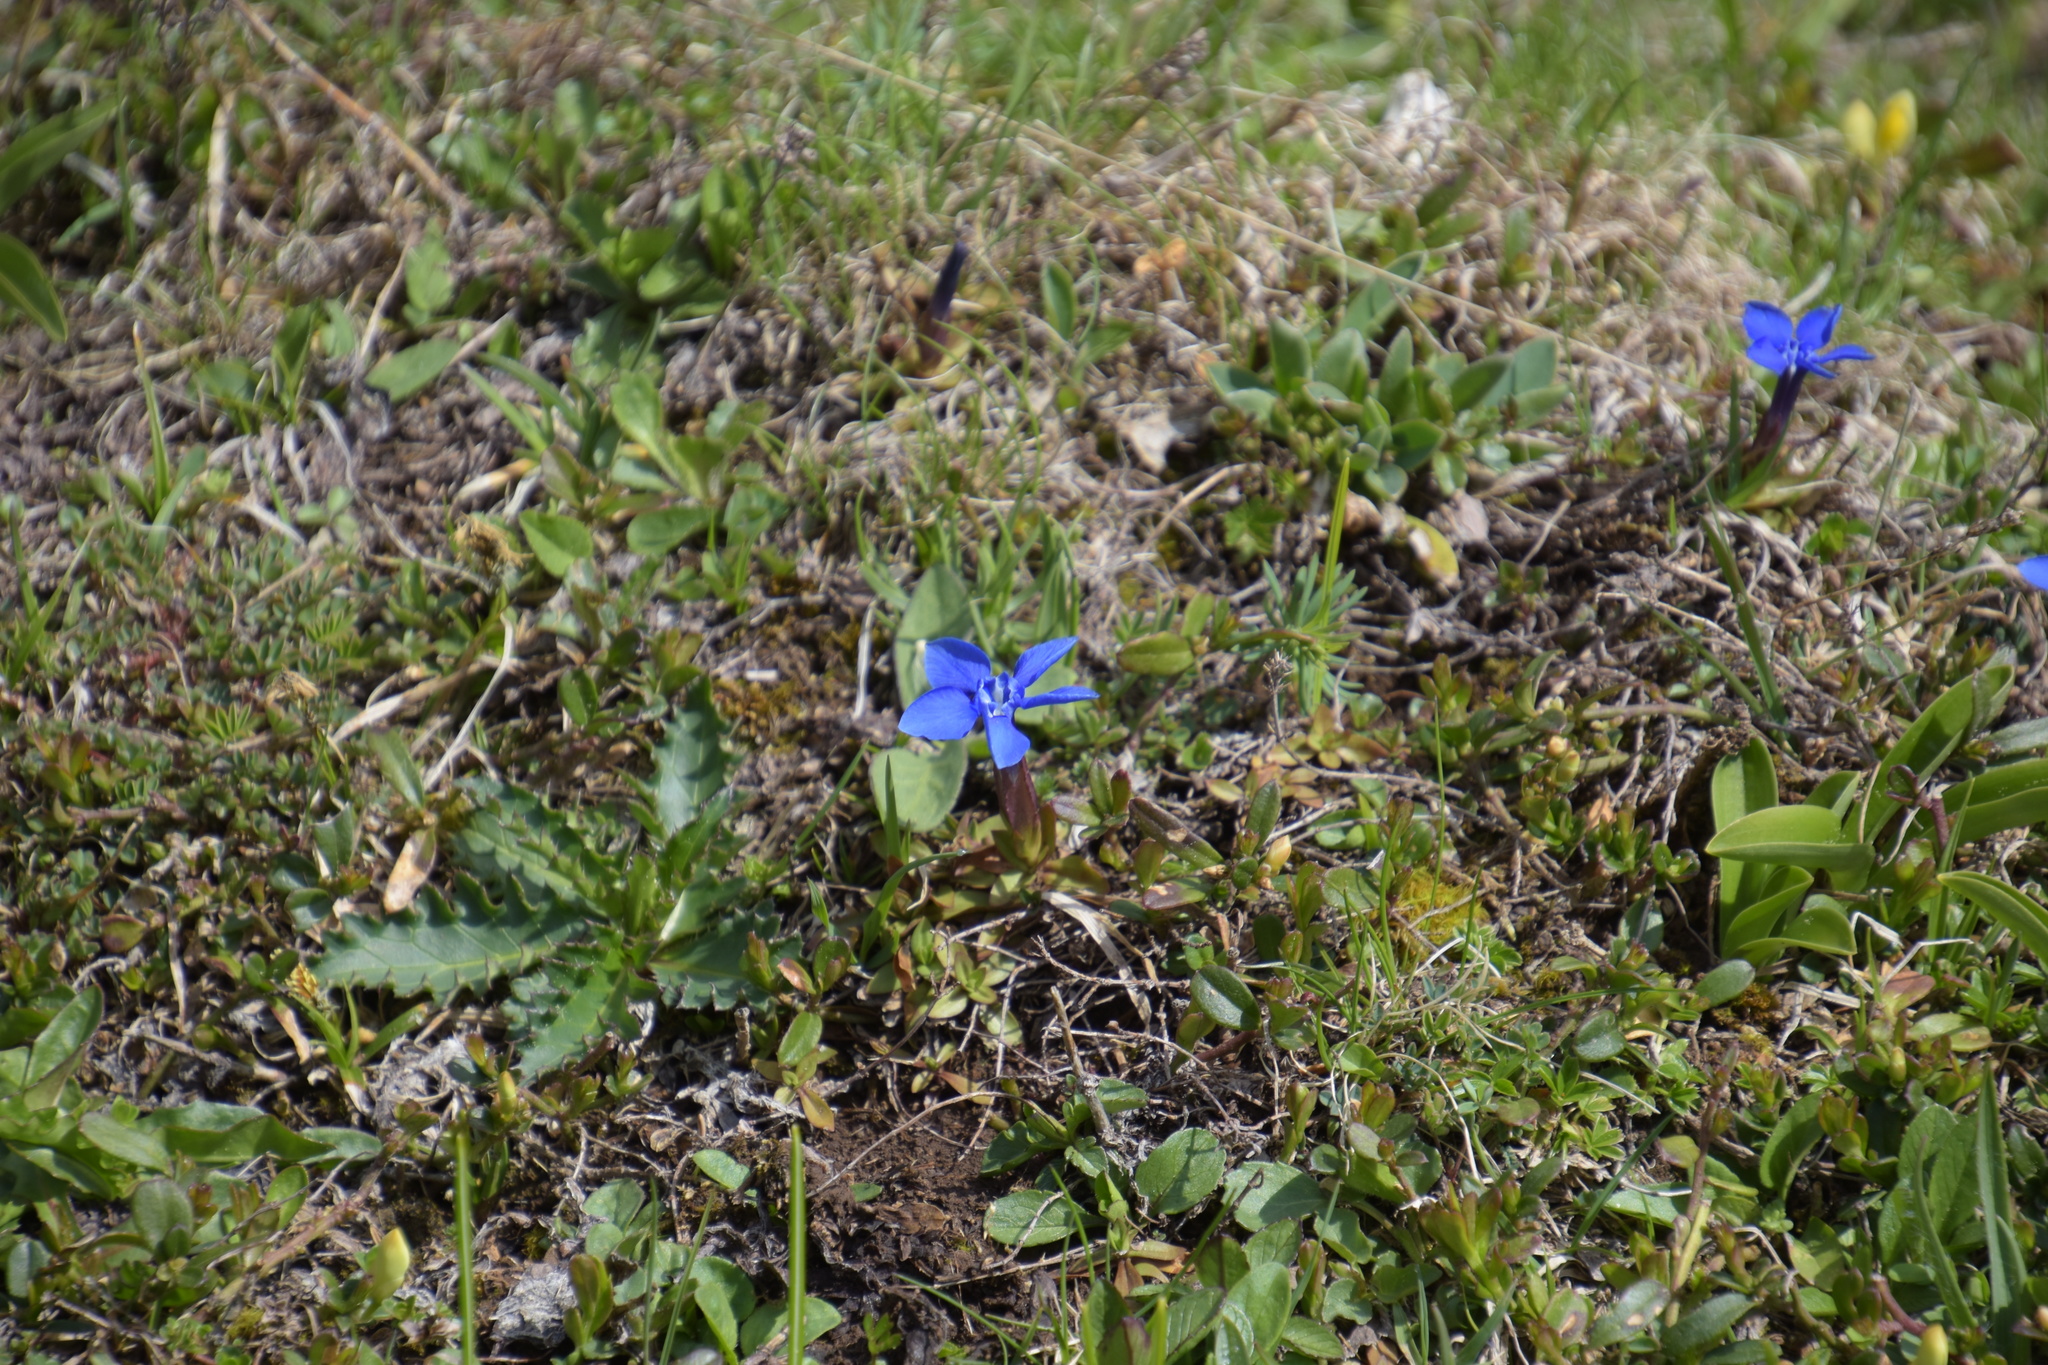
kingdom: Plantae
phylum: Tracheophyta
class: Magnoliopsida
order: Gentianales
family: Gentianaceae
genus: Gentiana
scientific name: Gentiana verna
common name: Spring gentian
